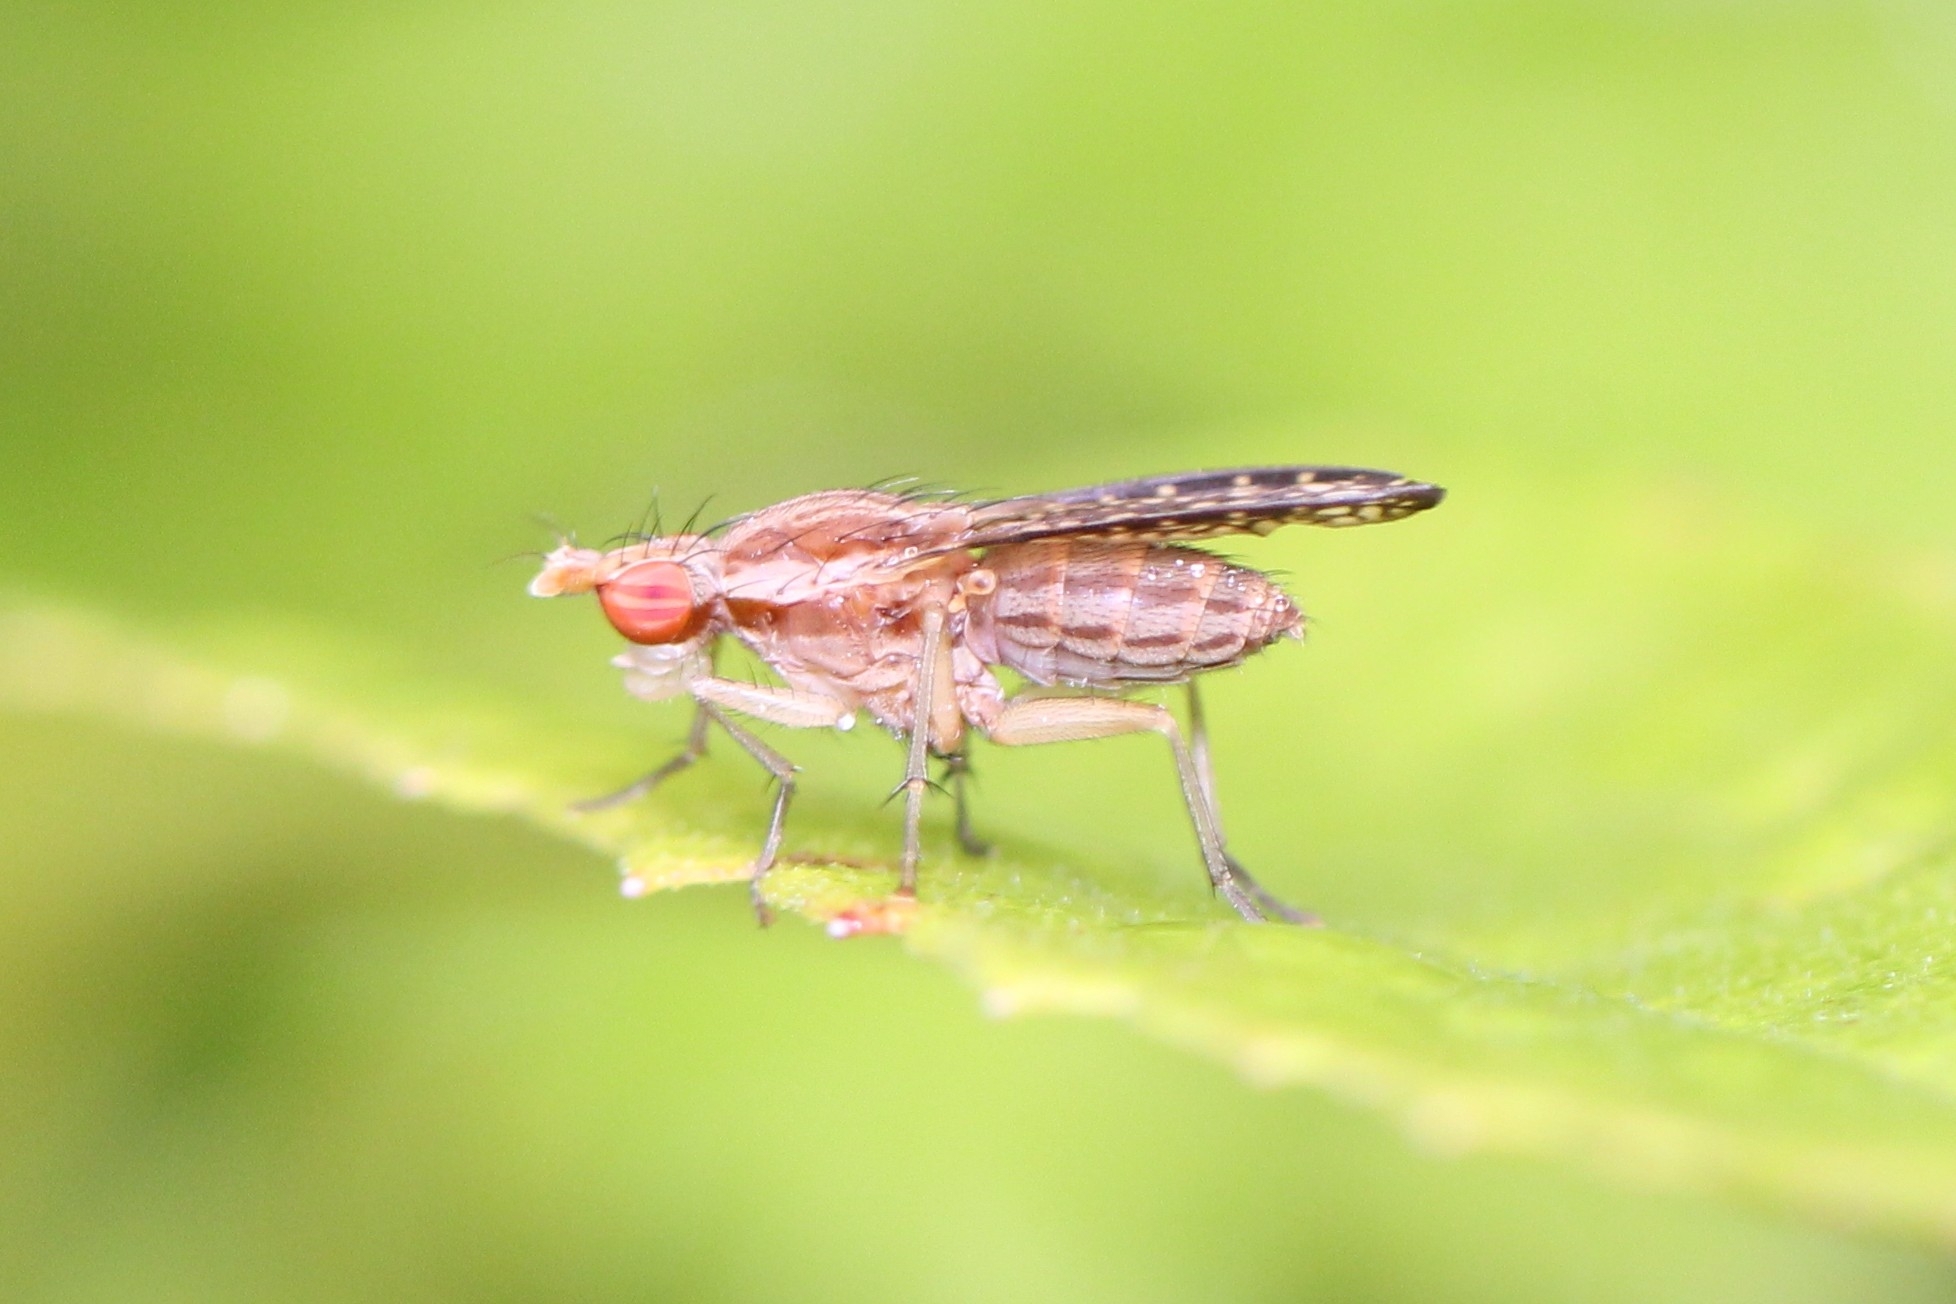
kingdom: Animalia
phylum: Arthropoda
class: Insecta
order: Diptera
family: Sciomyzidae
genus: Trypetoptera
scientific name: Trypetoptera canadensis
